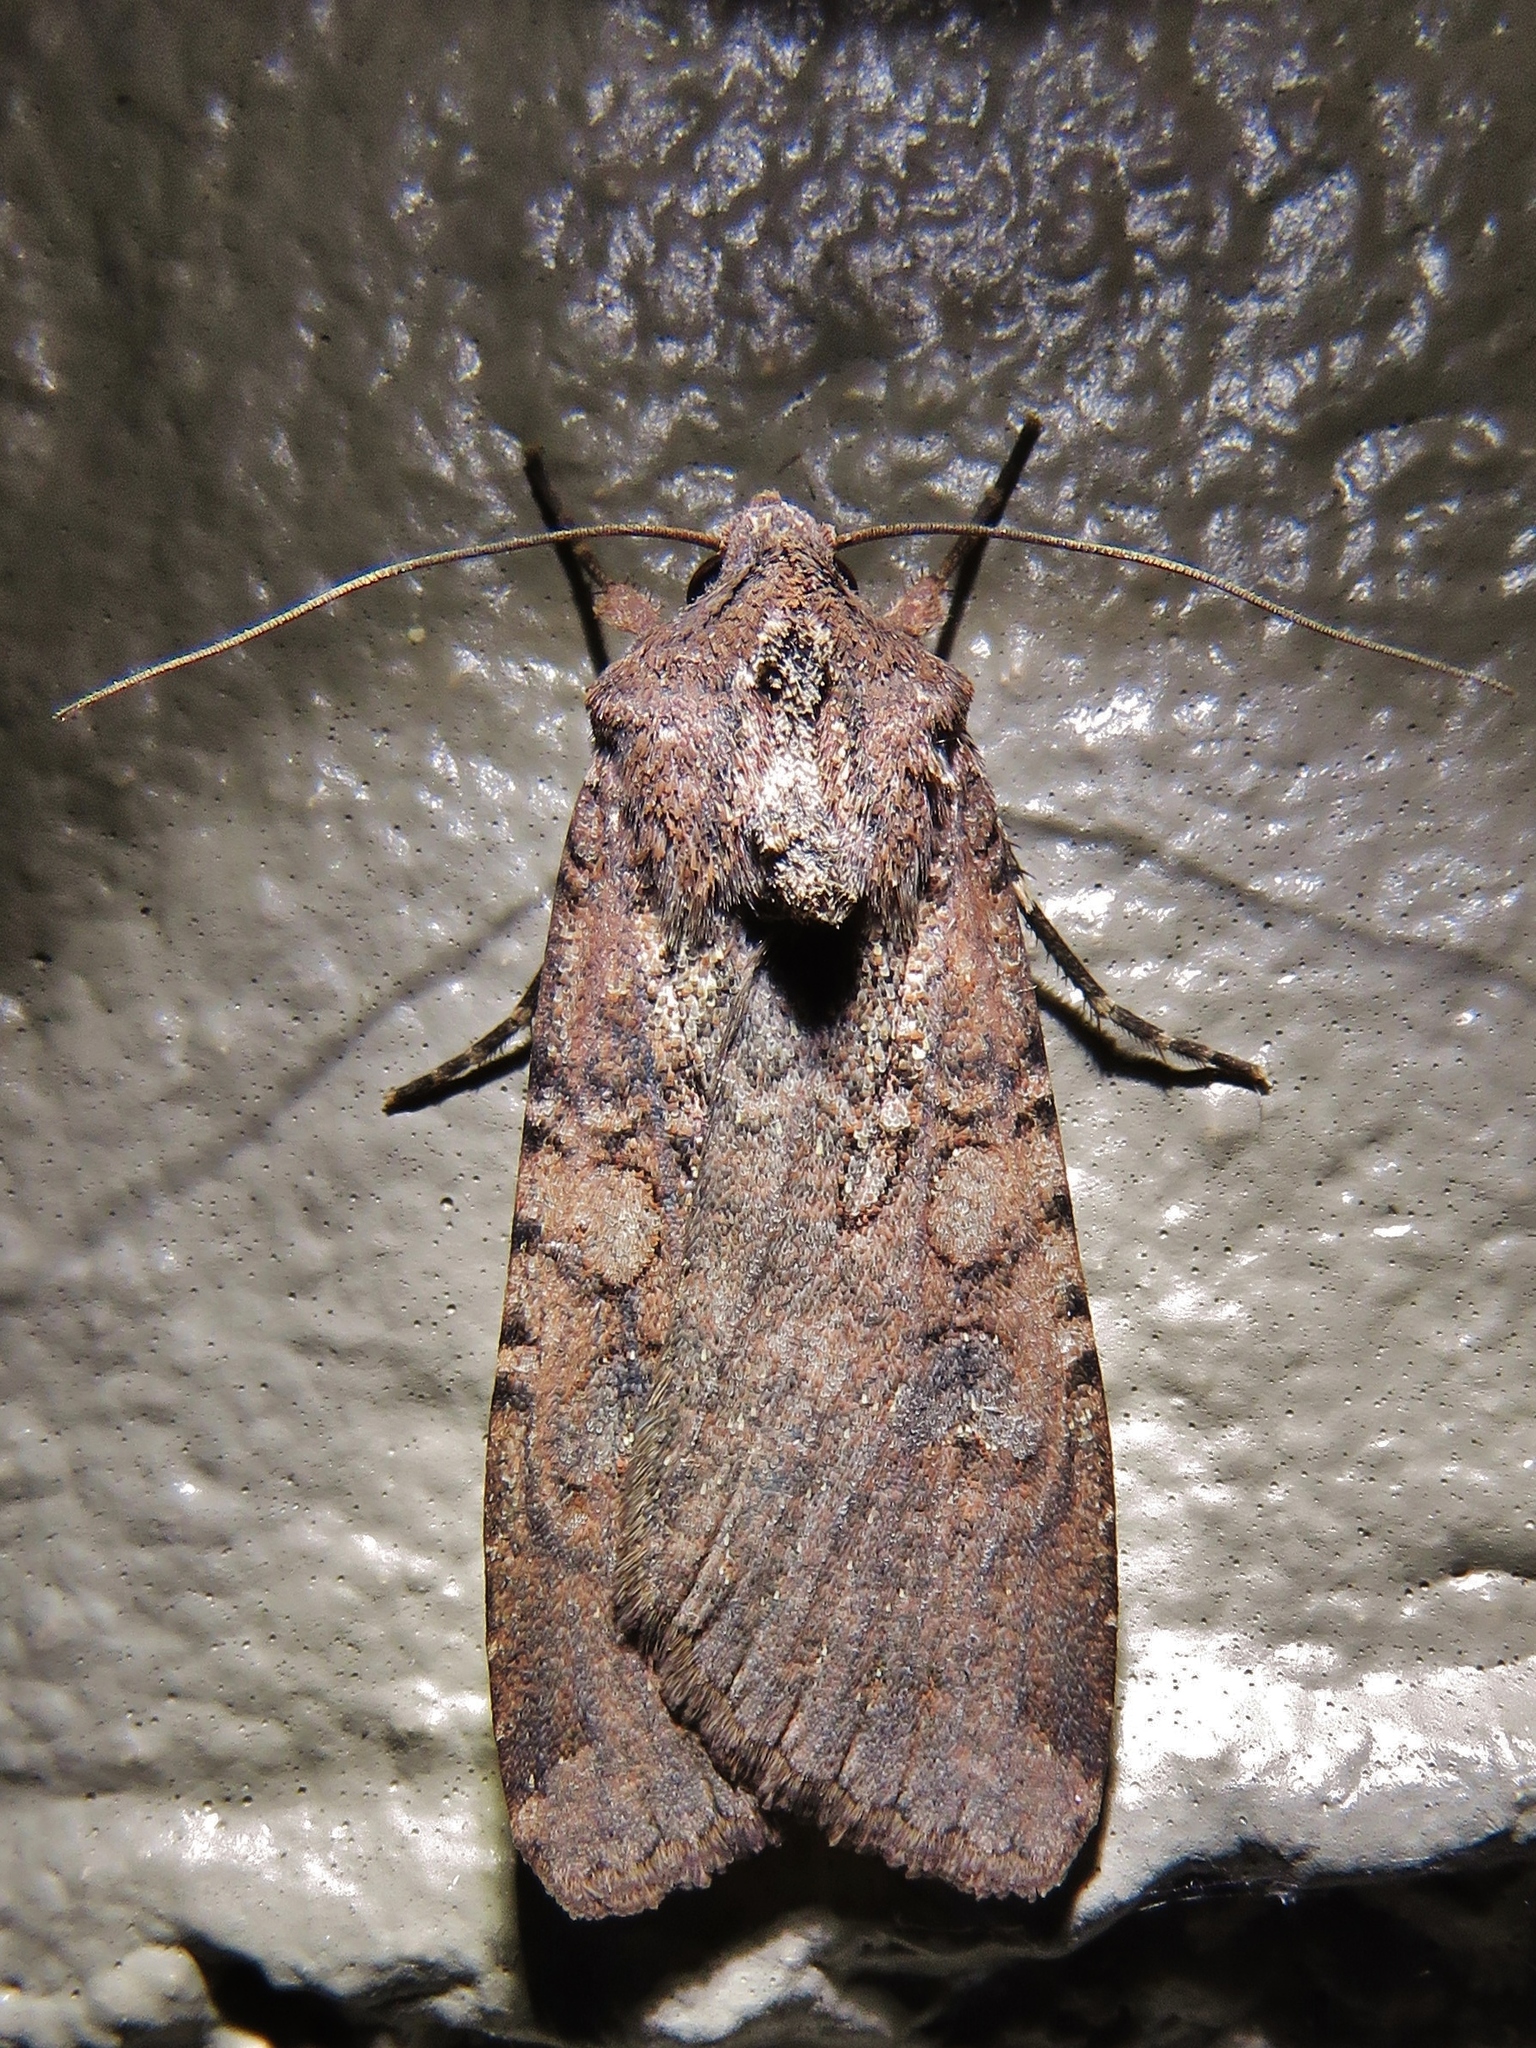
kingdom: Animalia
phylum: Arthropoda
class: Insecta
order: Lepidoptera
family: Noctuidae
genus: Peridroma
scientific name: Peridroma saucia
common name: Pearly underwing
